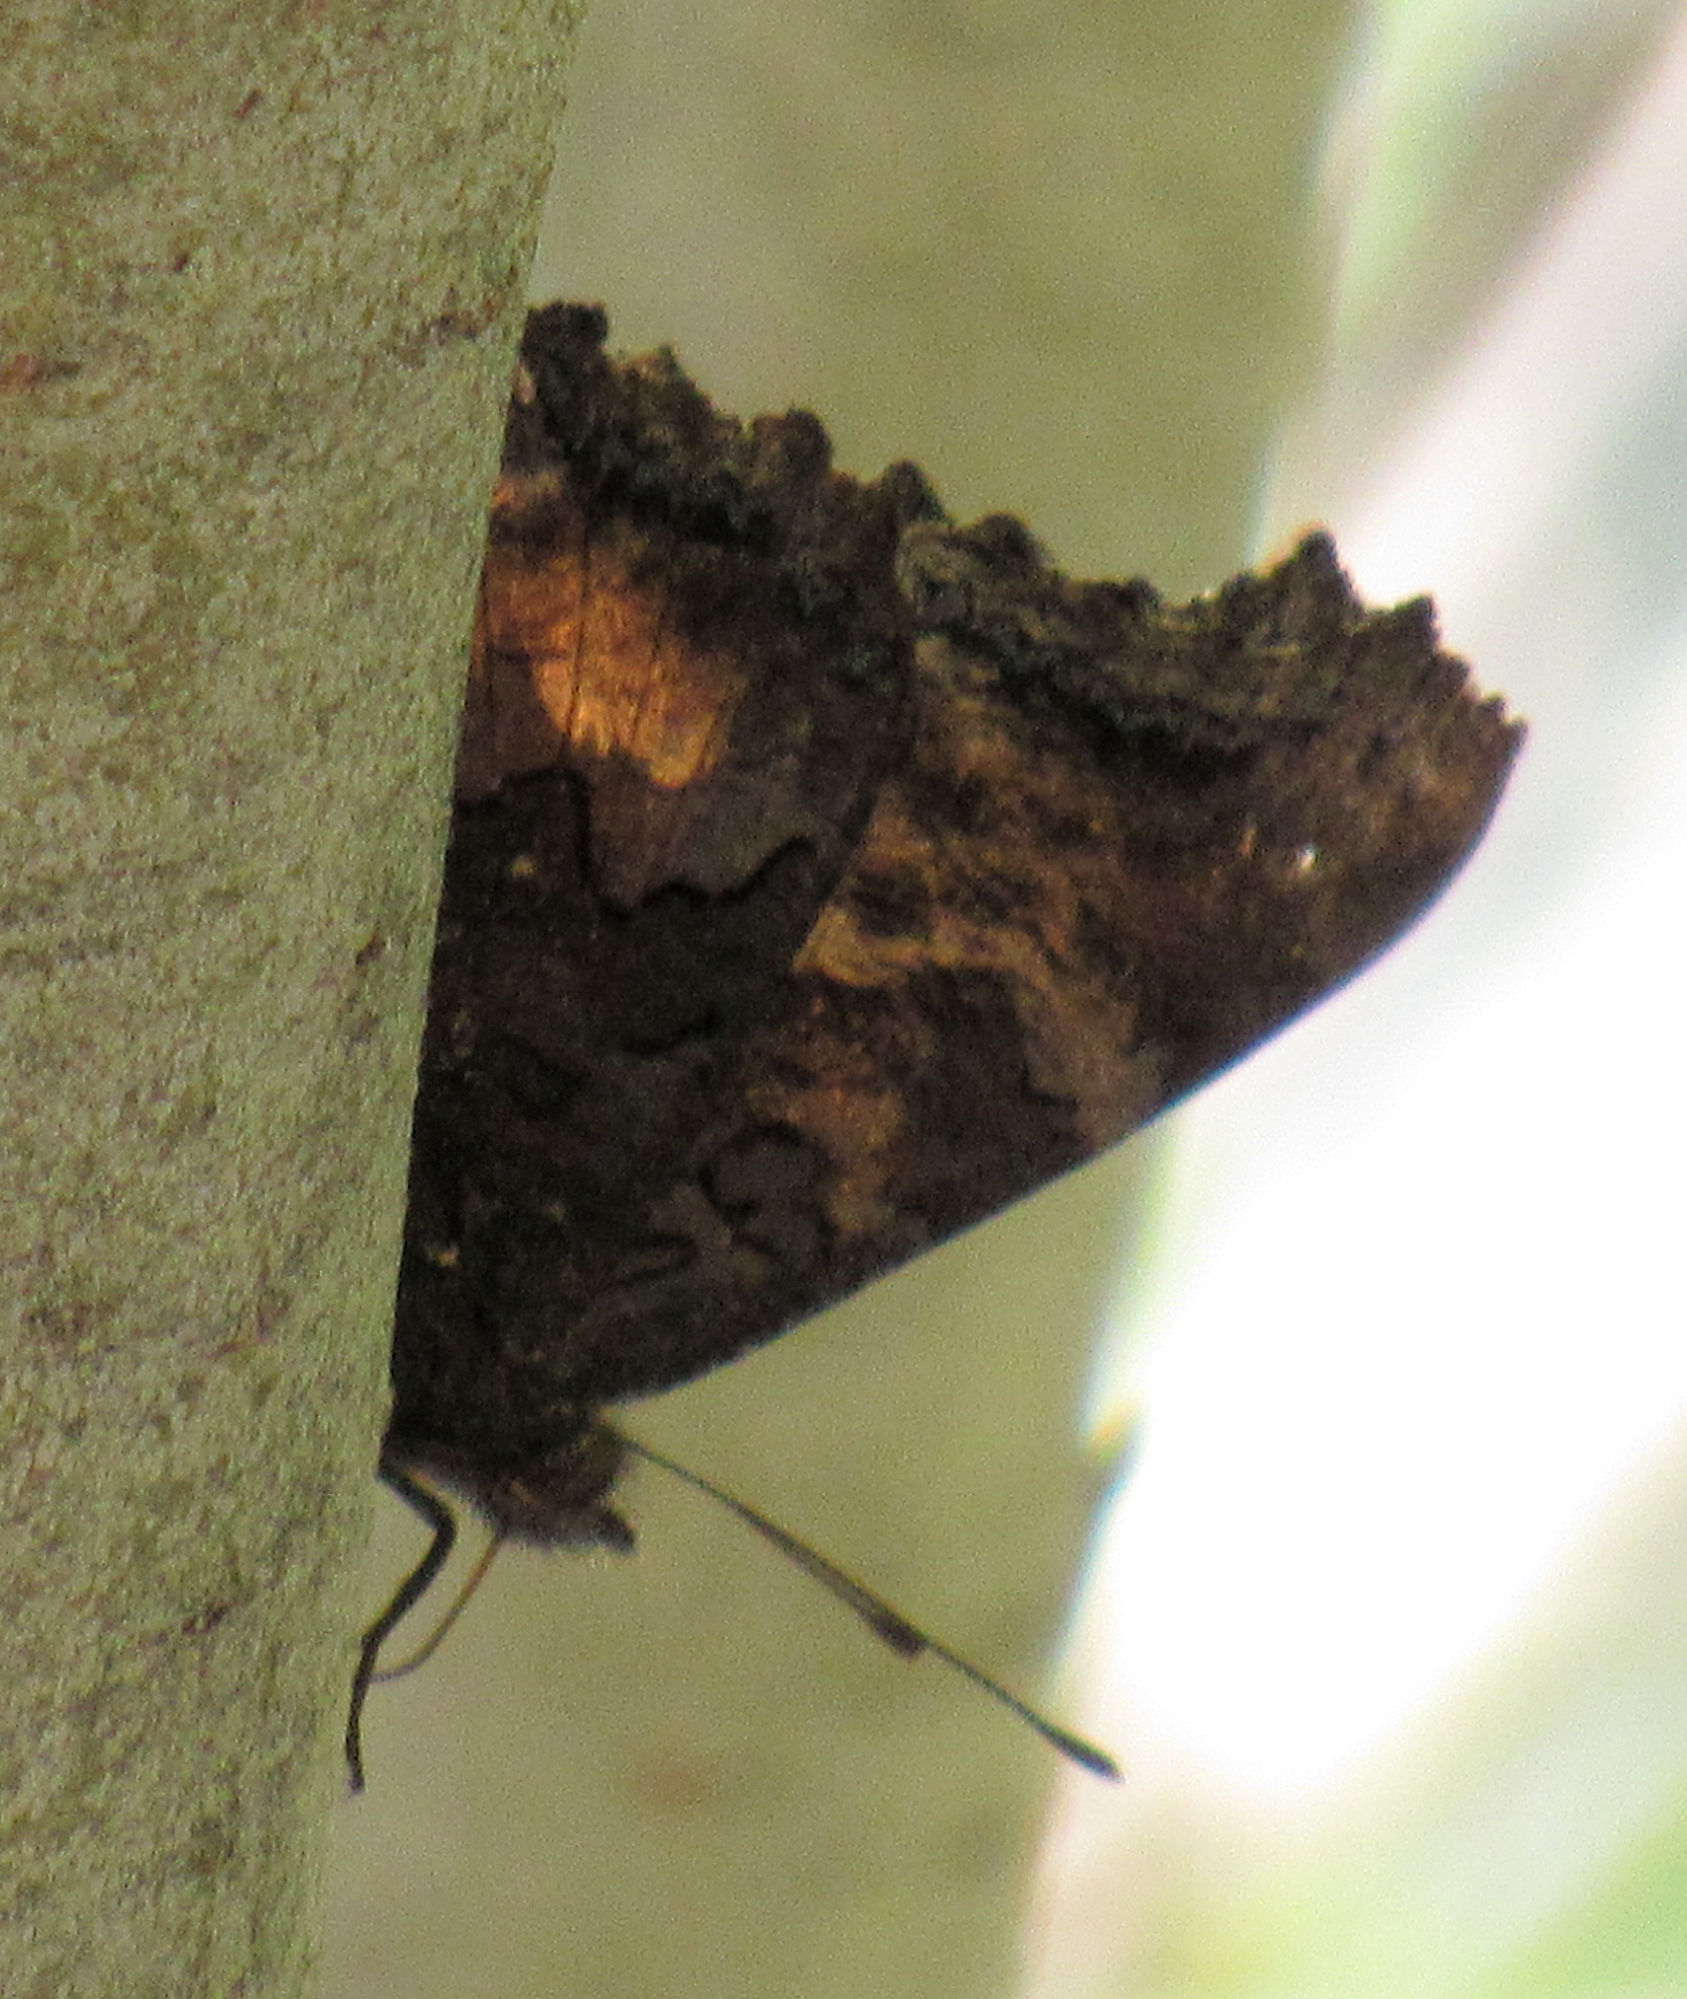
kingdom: Animalia
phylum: Arthropoda
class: Insecta
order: Lepidoptera
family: Nymphalidae
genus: Nymphalis
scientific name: Nymphalis californica
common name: California tortoiseshell
